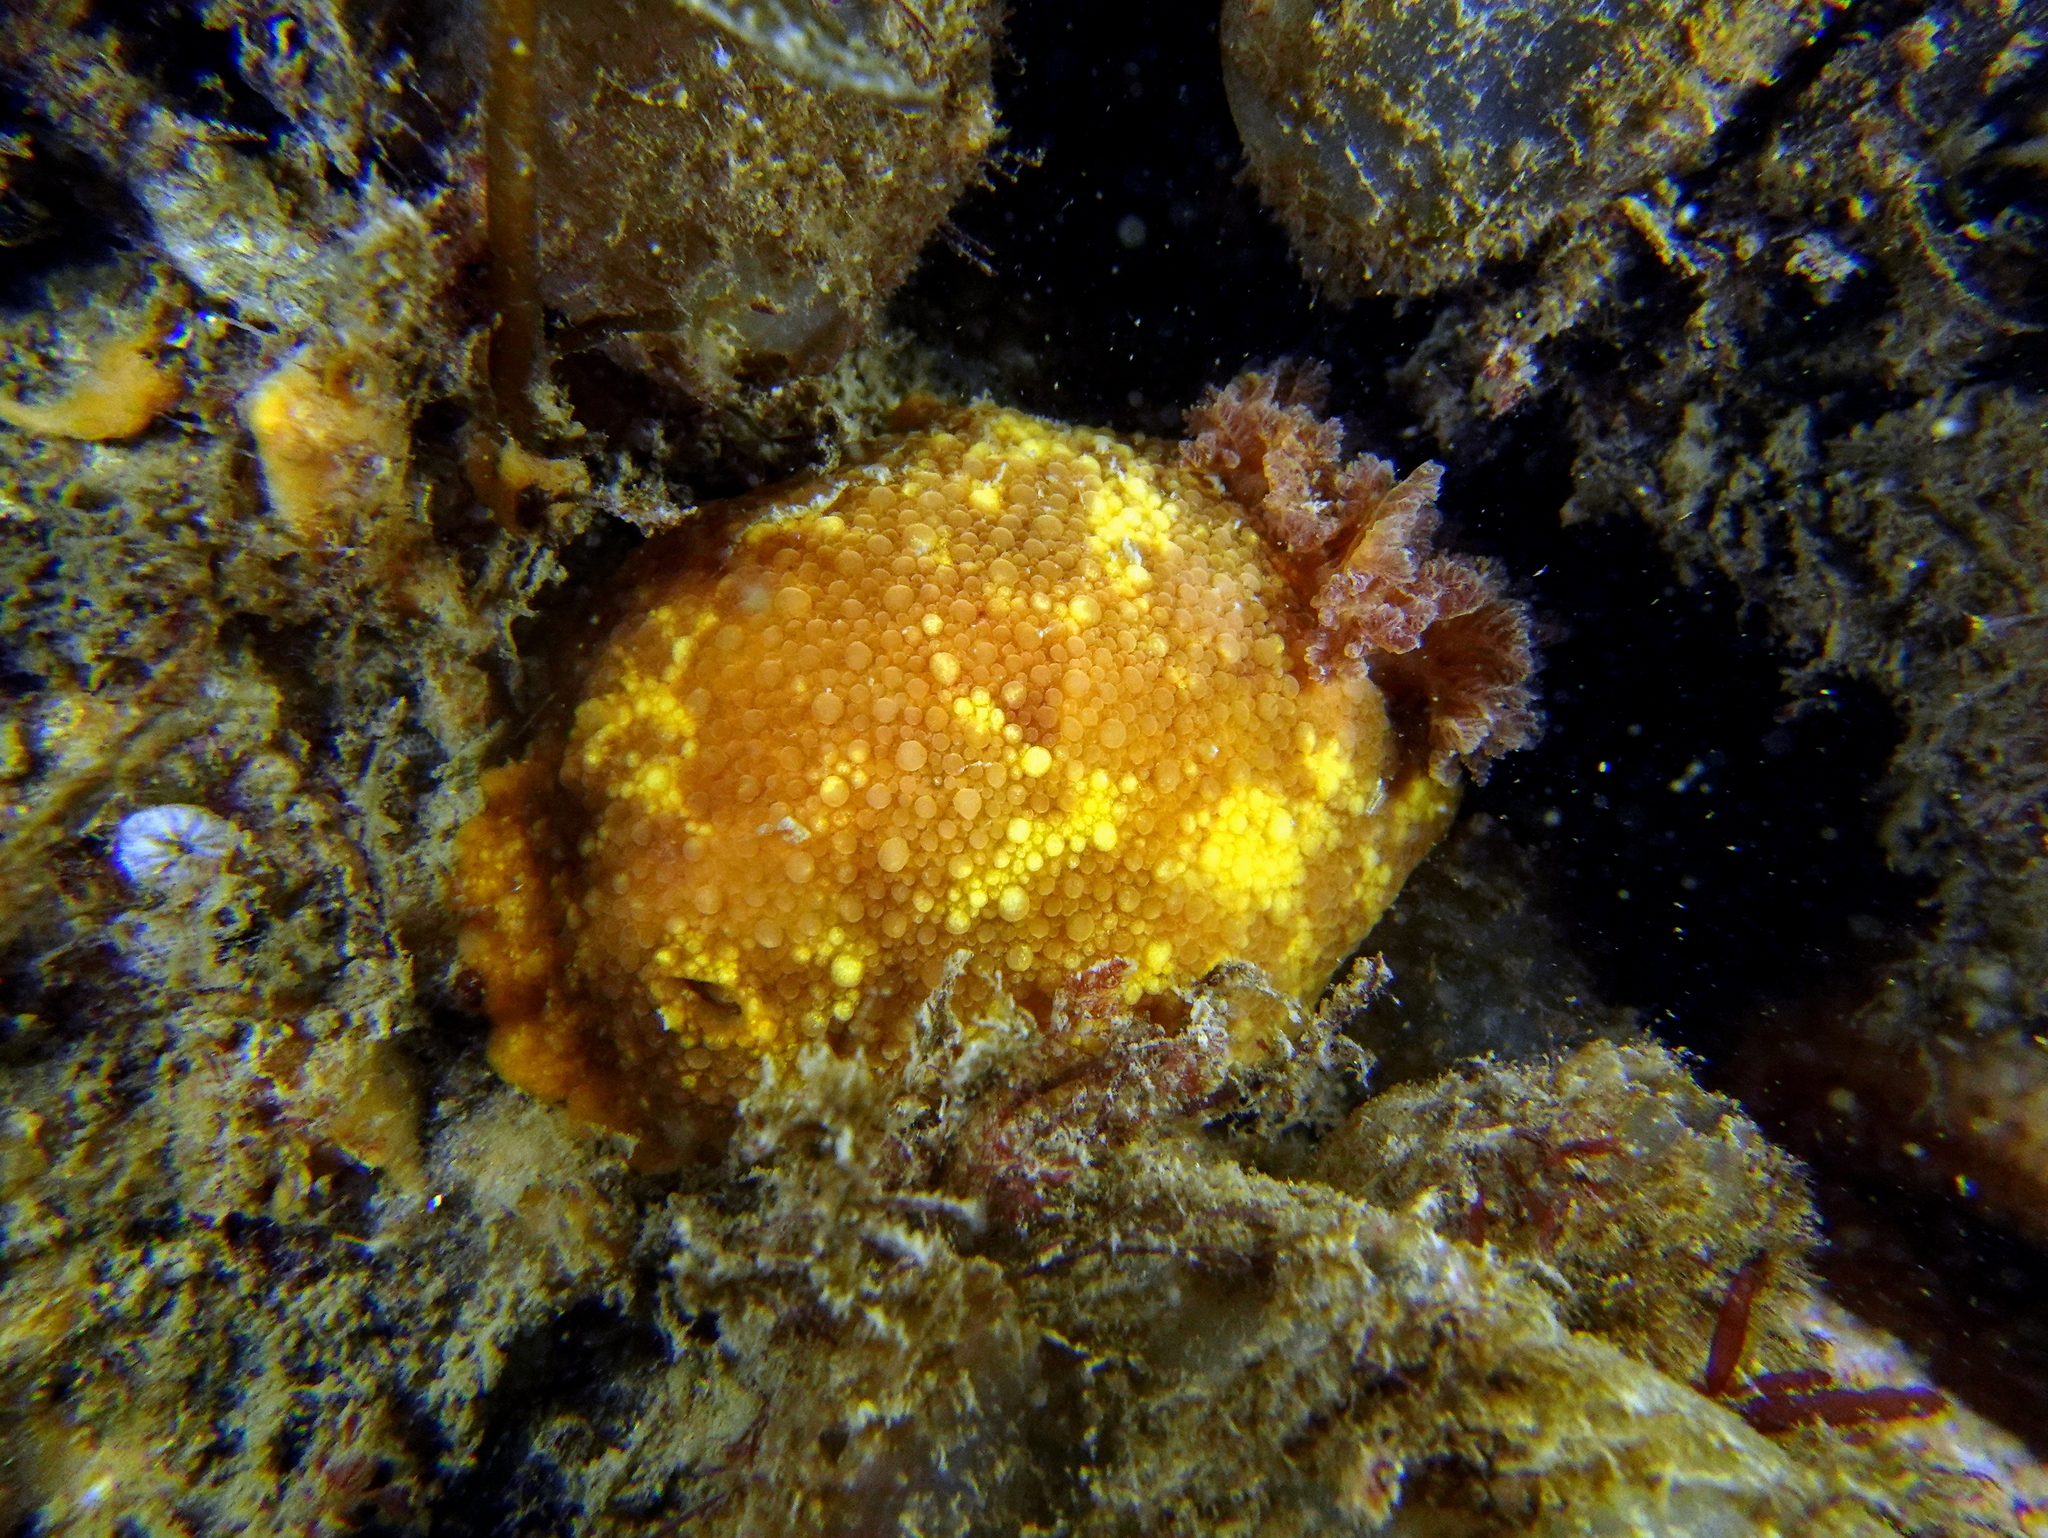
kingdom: Animalia
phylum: Mollusca
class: Gastropoda
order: Nudibranchia
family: Dorididae
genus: Doris
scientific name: Doris pseudoargus
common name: Sea lemon
